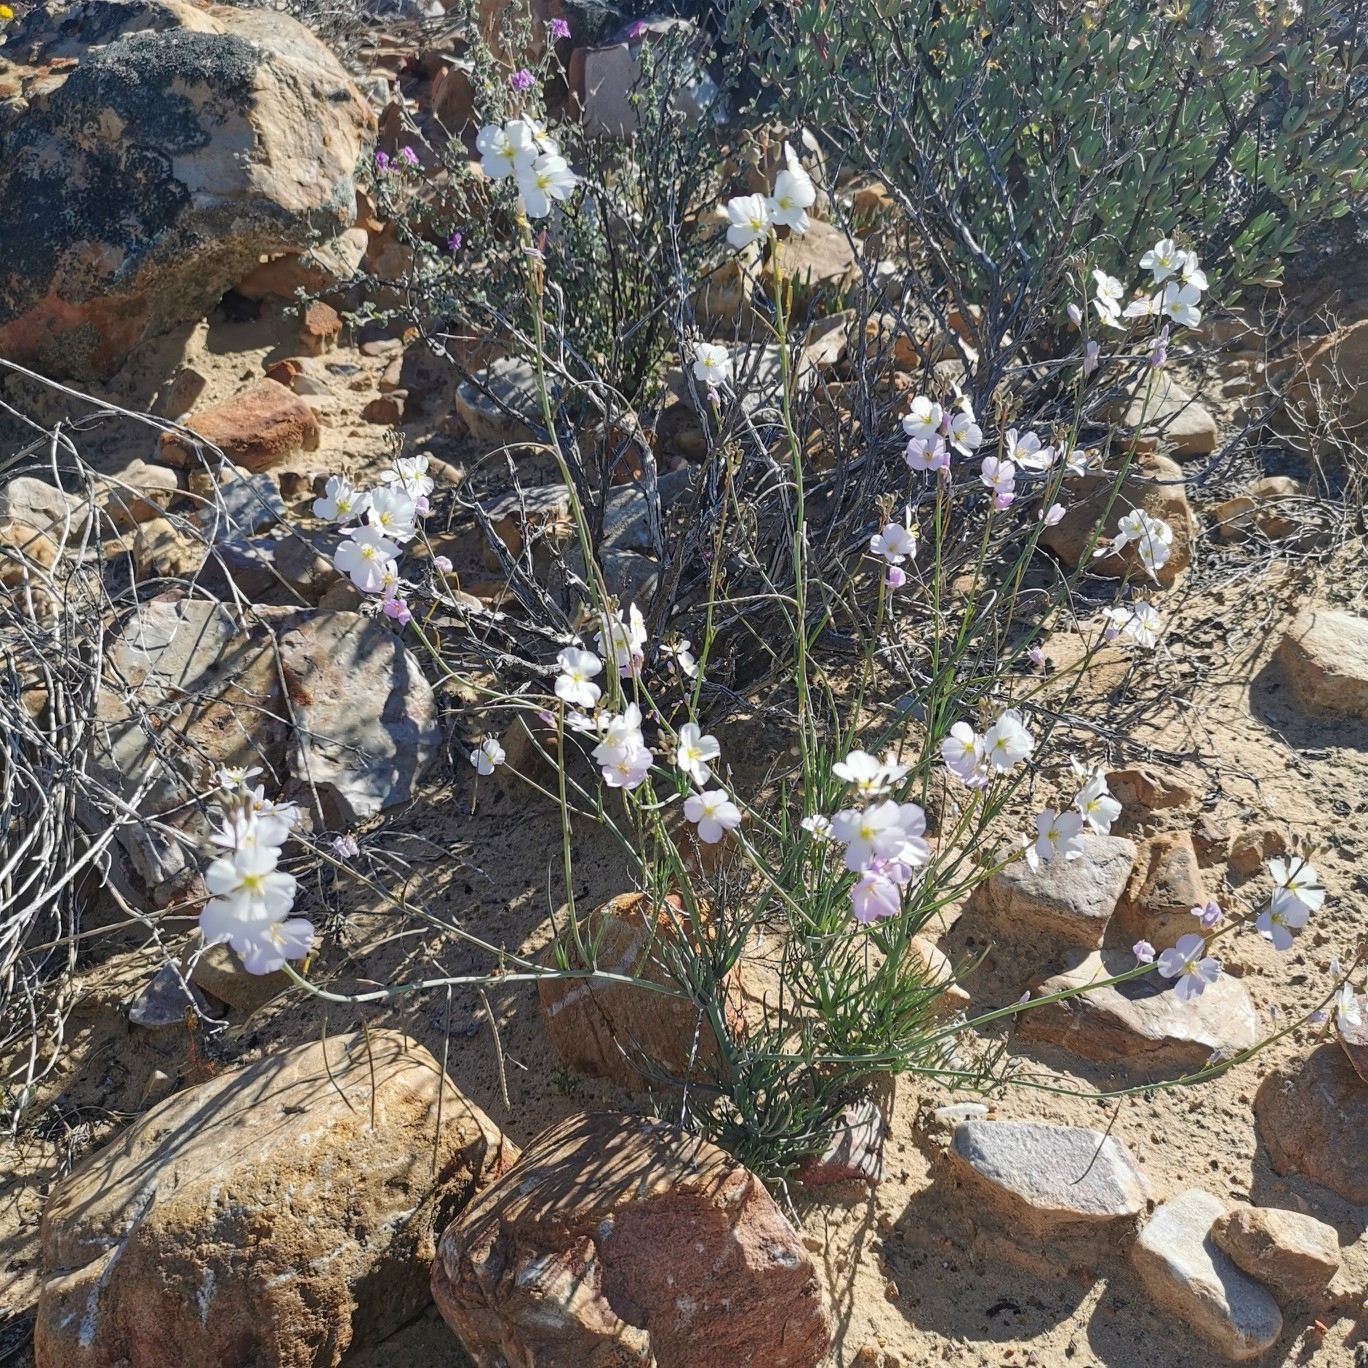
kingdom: Plantae
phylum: Tracheophyta
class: Magnoliopsida
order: Brassicales
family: Brassicaceae
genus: Heliophila
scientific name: Heliophila carnosa
